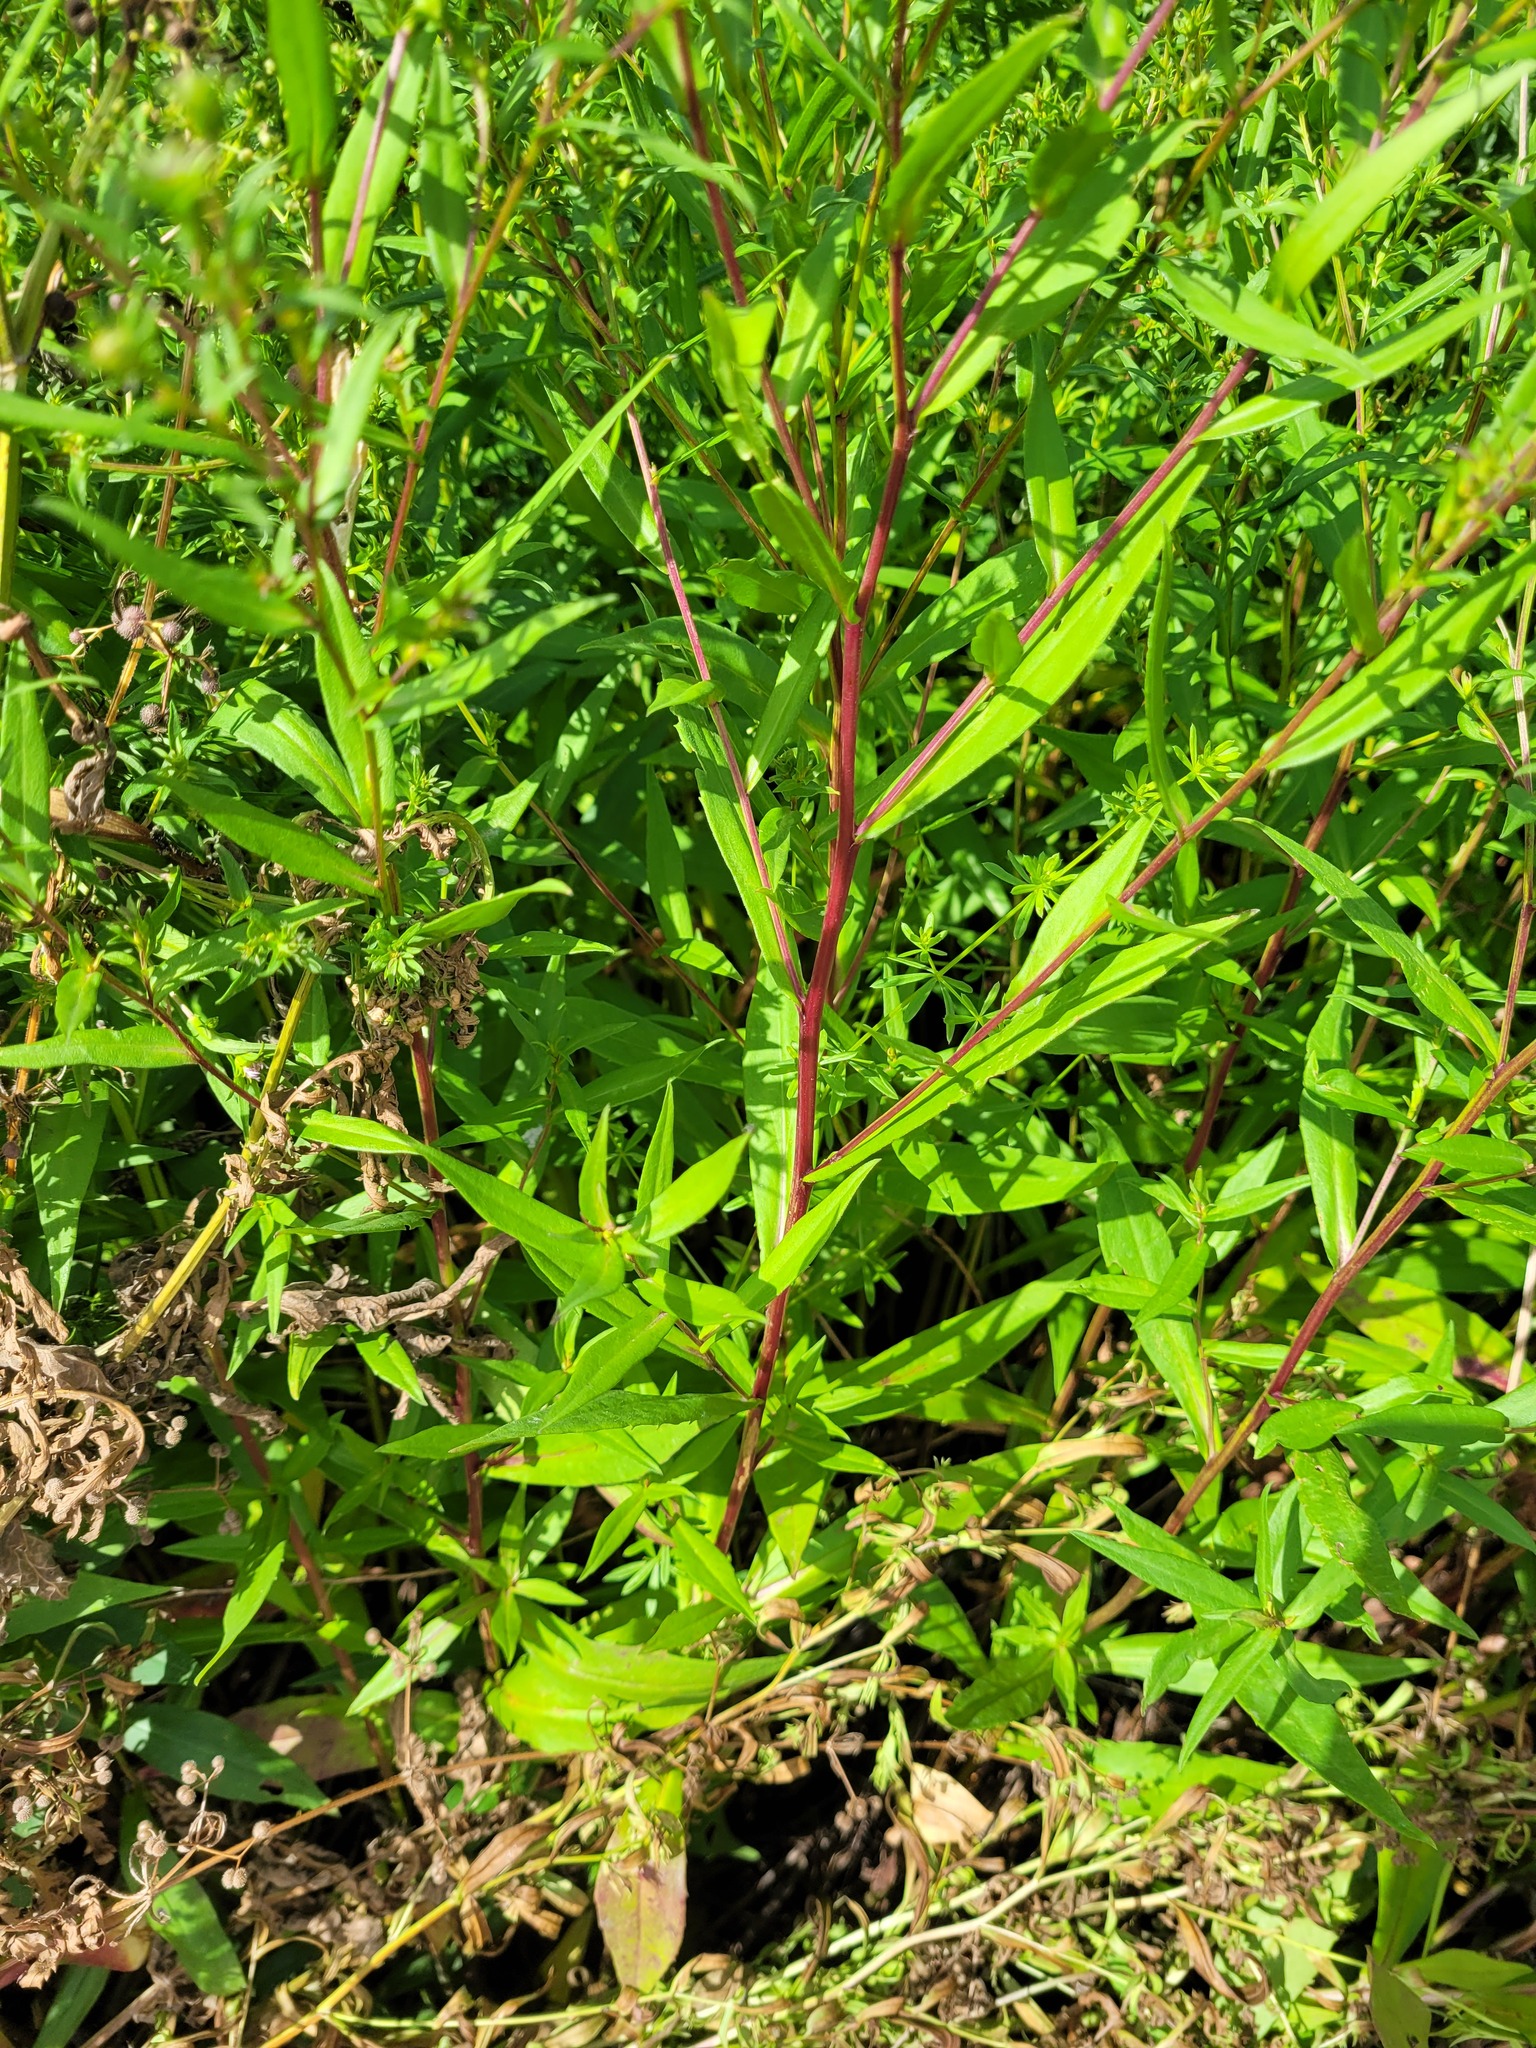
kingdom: Plantae
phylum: Tracheophyta
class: Magnoliopsida
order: Asterales
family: Asteraceae
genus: Symphyotrichum
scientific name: Symphyotrichum novi-belgii
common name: Michaelmas daisy
